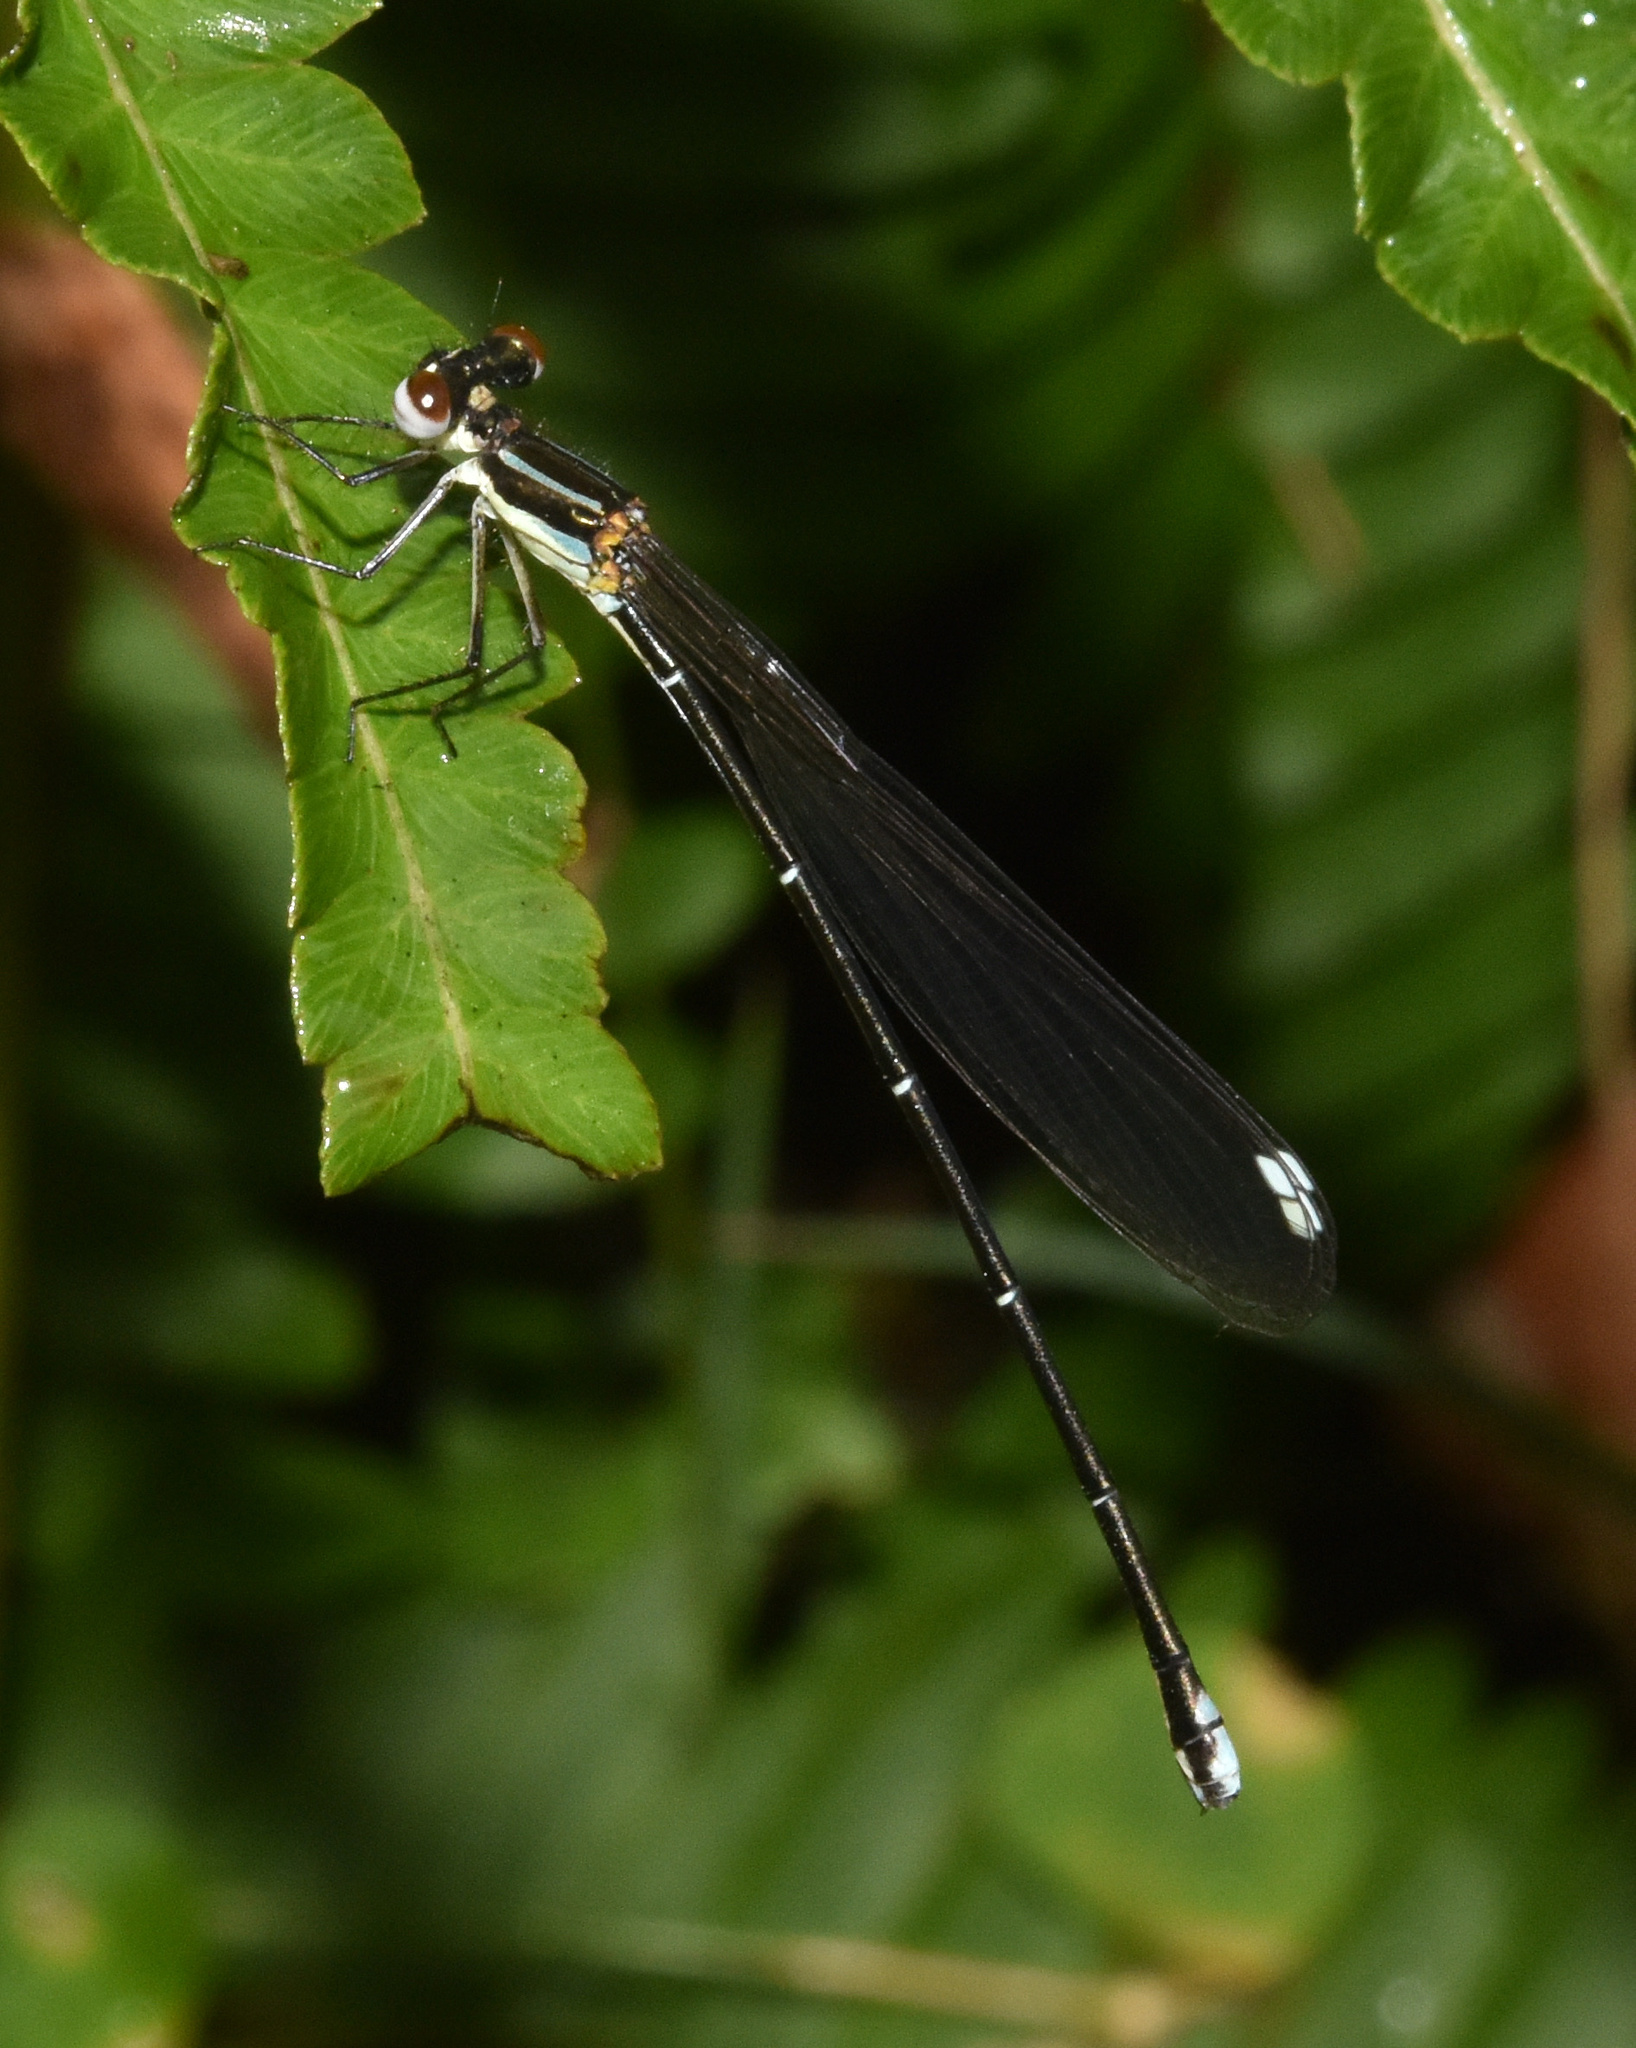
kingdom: Animalia
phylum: Arthropoda
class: Insecta
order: Odonata
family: Platycnemididae
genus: Allocnemis
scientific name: Allocnemis leucosticta
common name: Goldtail
